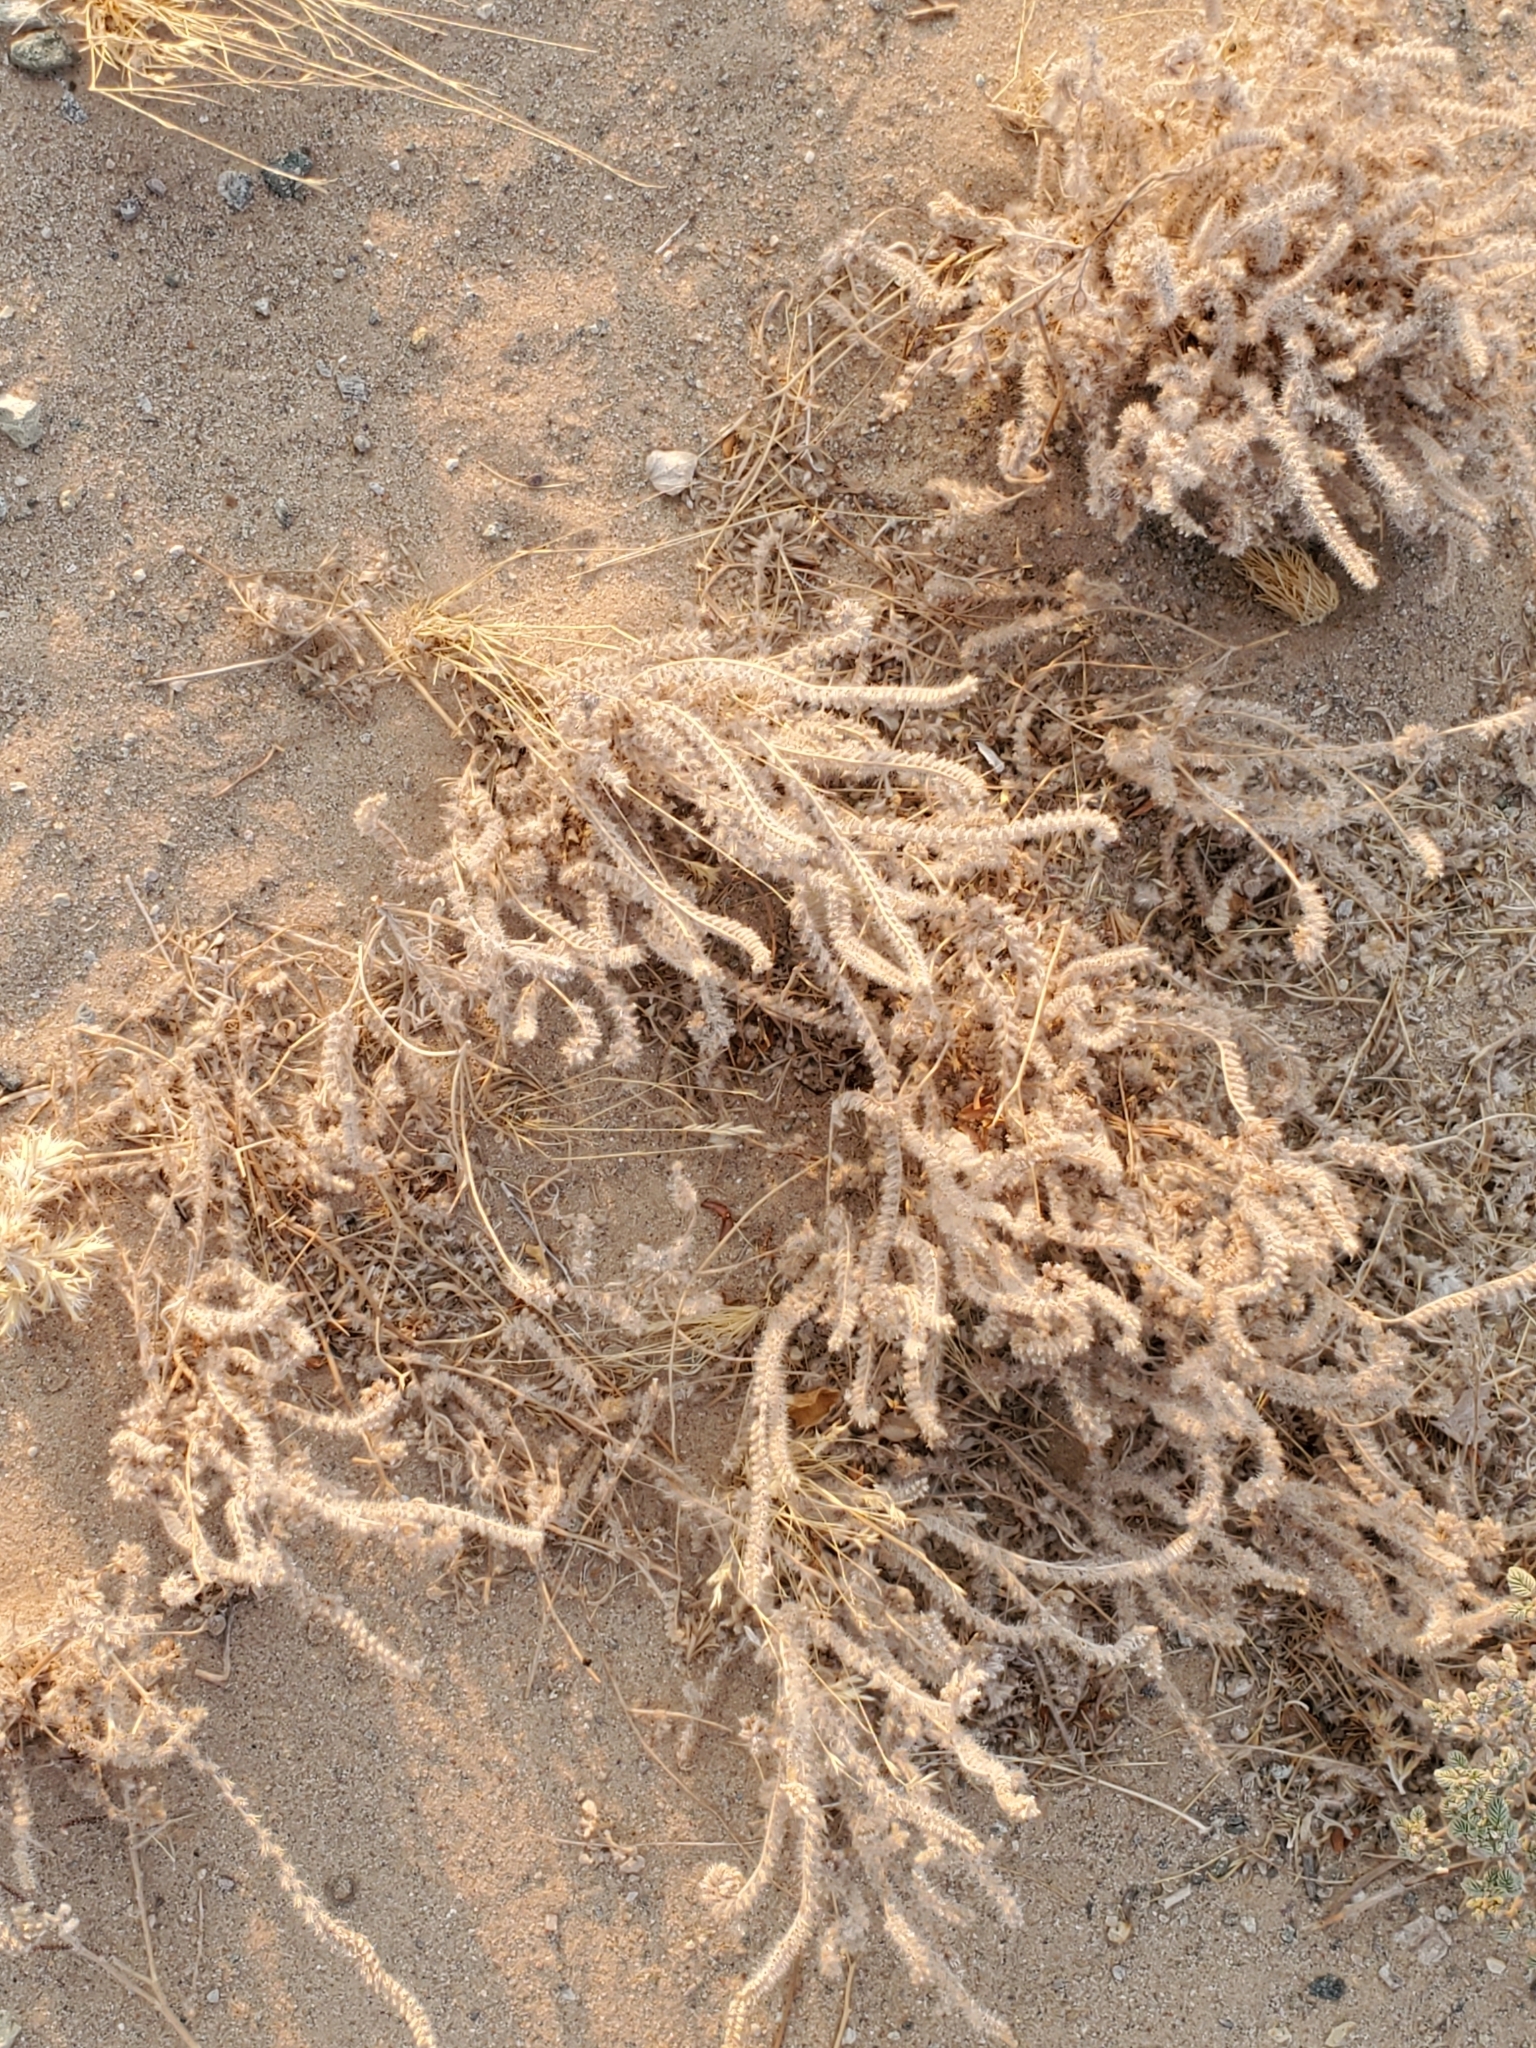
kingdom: Plantae
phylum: Tracheophyta
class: Magnoliopsida
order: Boraginales
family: Boraginaceae
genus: Johnstonella
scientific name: Johnstonella angustifolia
